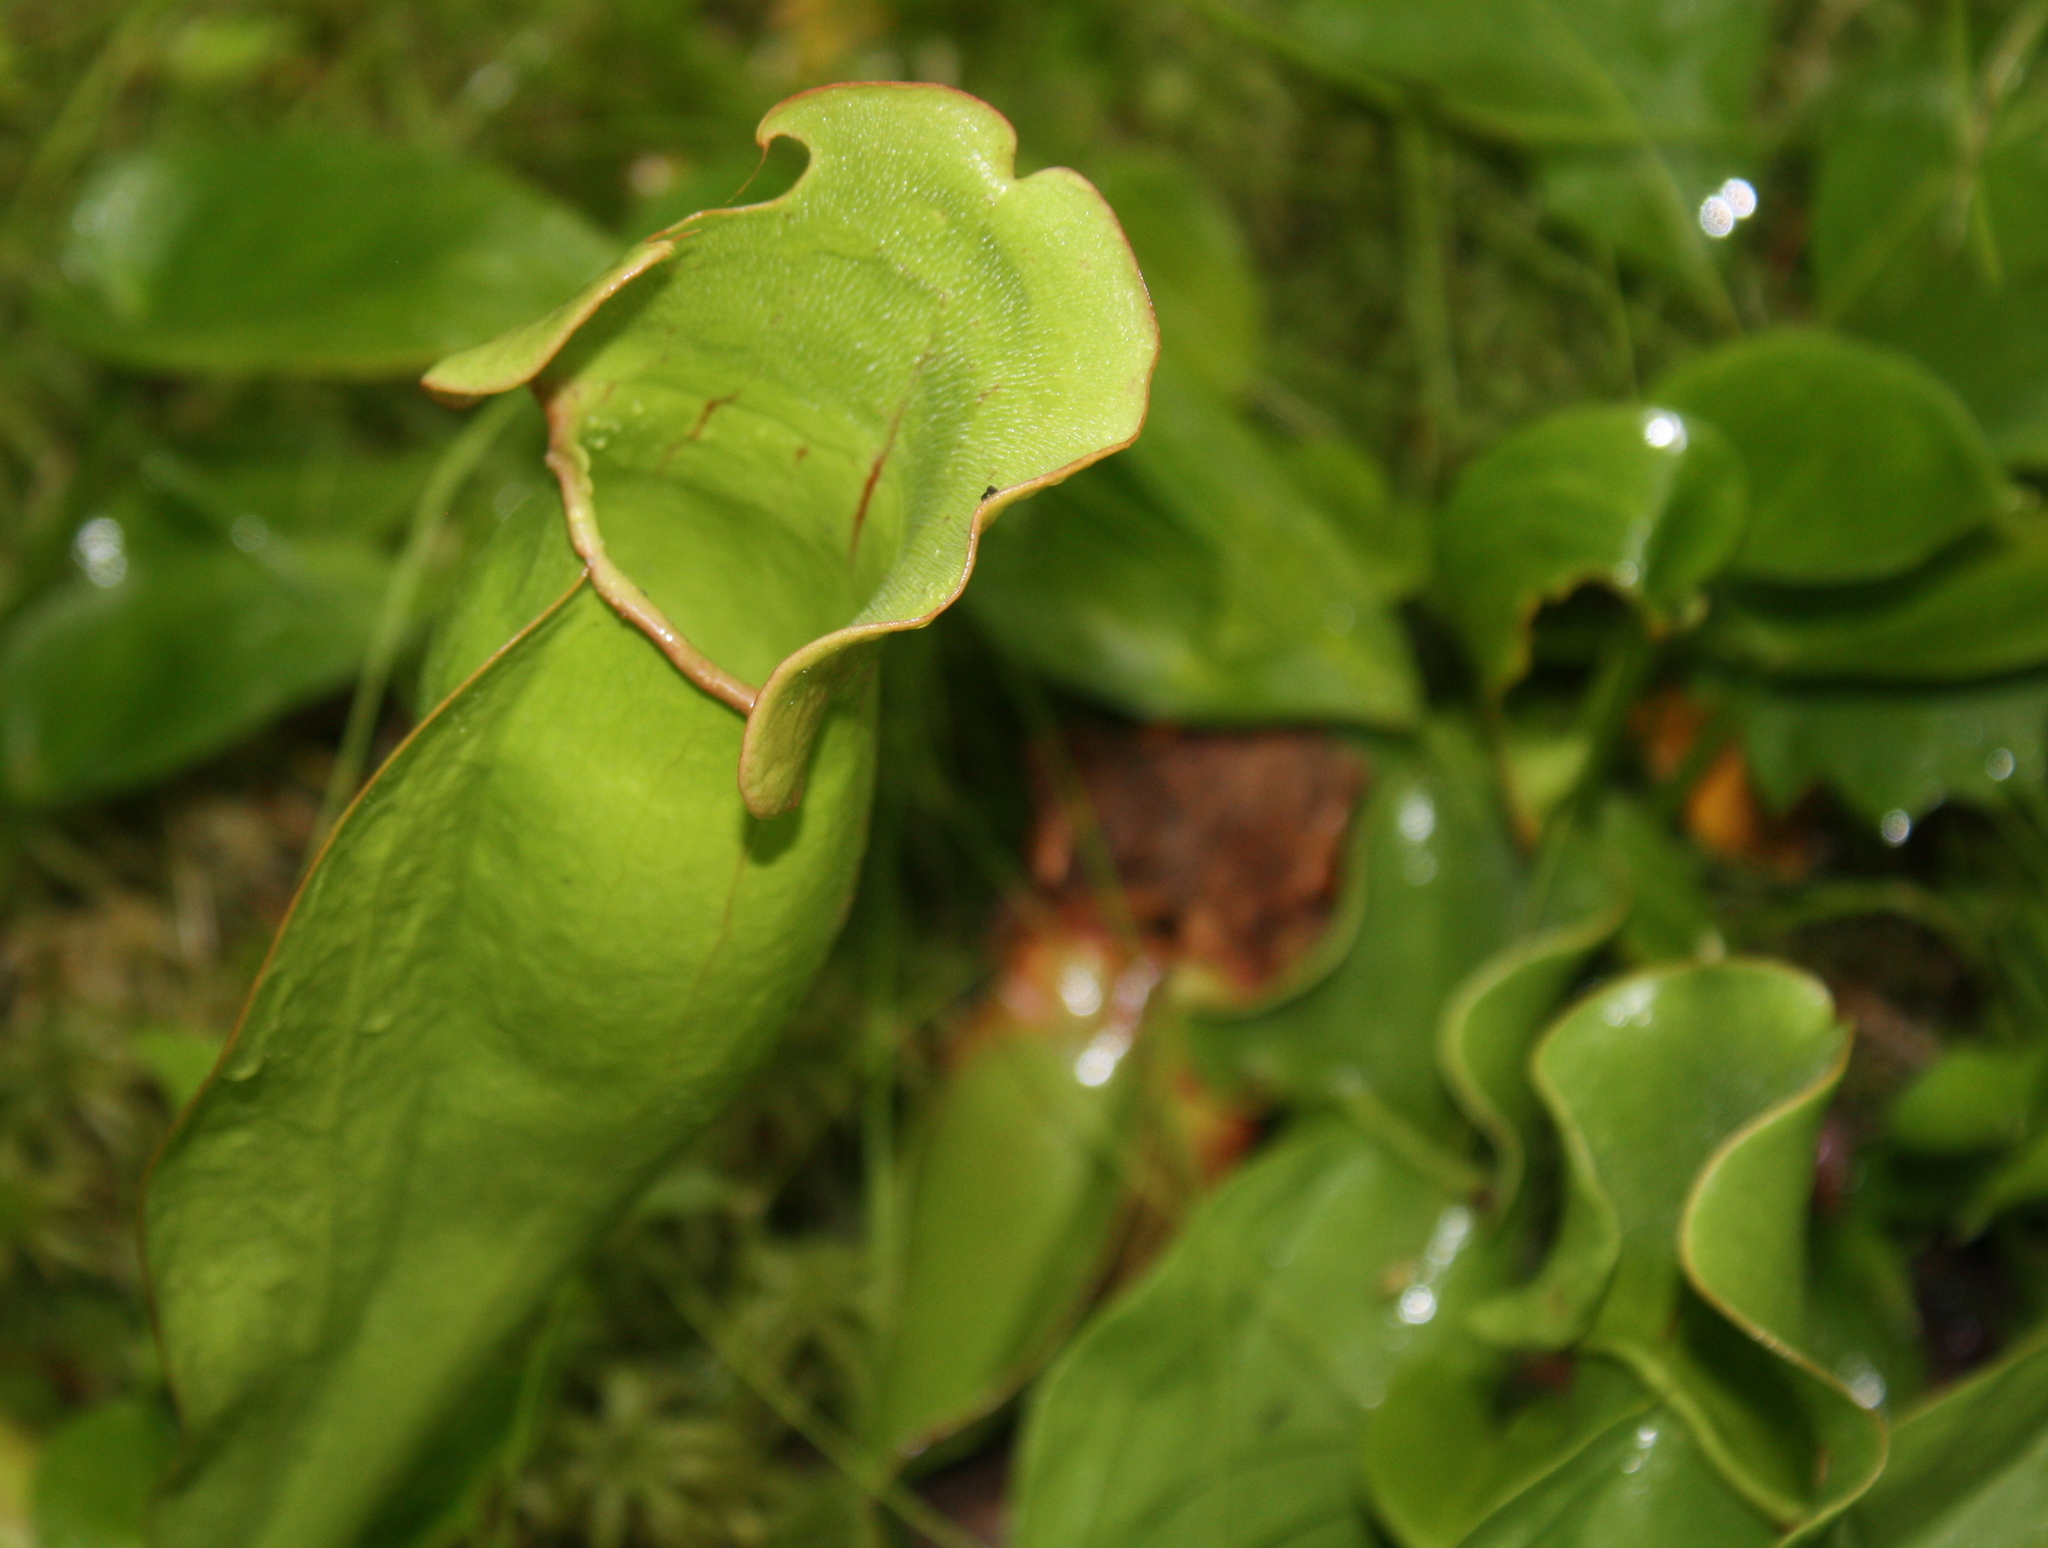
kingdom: Plantae
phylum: Tracheophyta
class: Magnoliopsida
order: Ericales
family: Sarraceniaceae
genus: Sarracenia
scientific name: Sarracenia purpurea
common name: Pitcherplant
